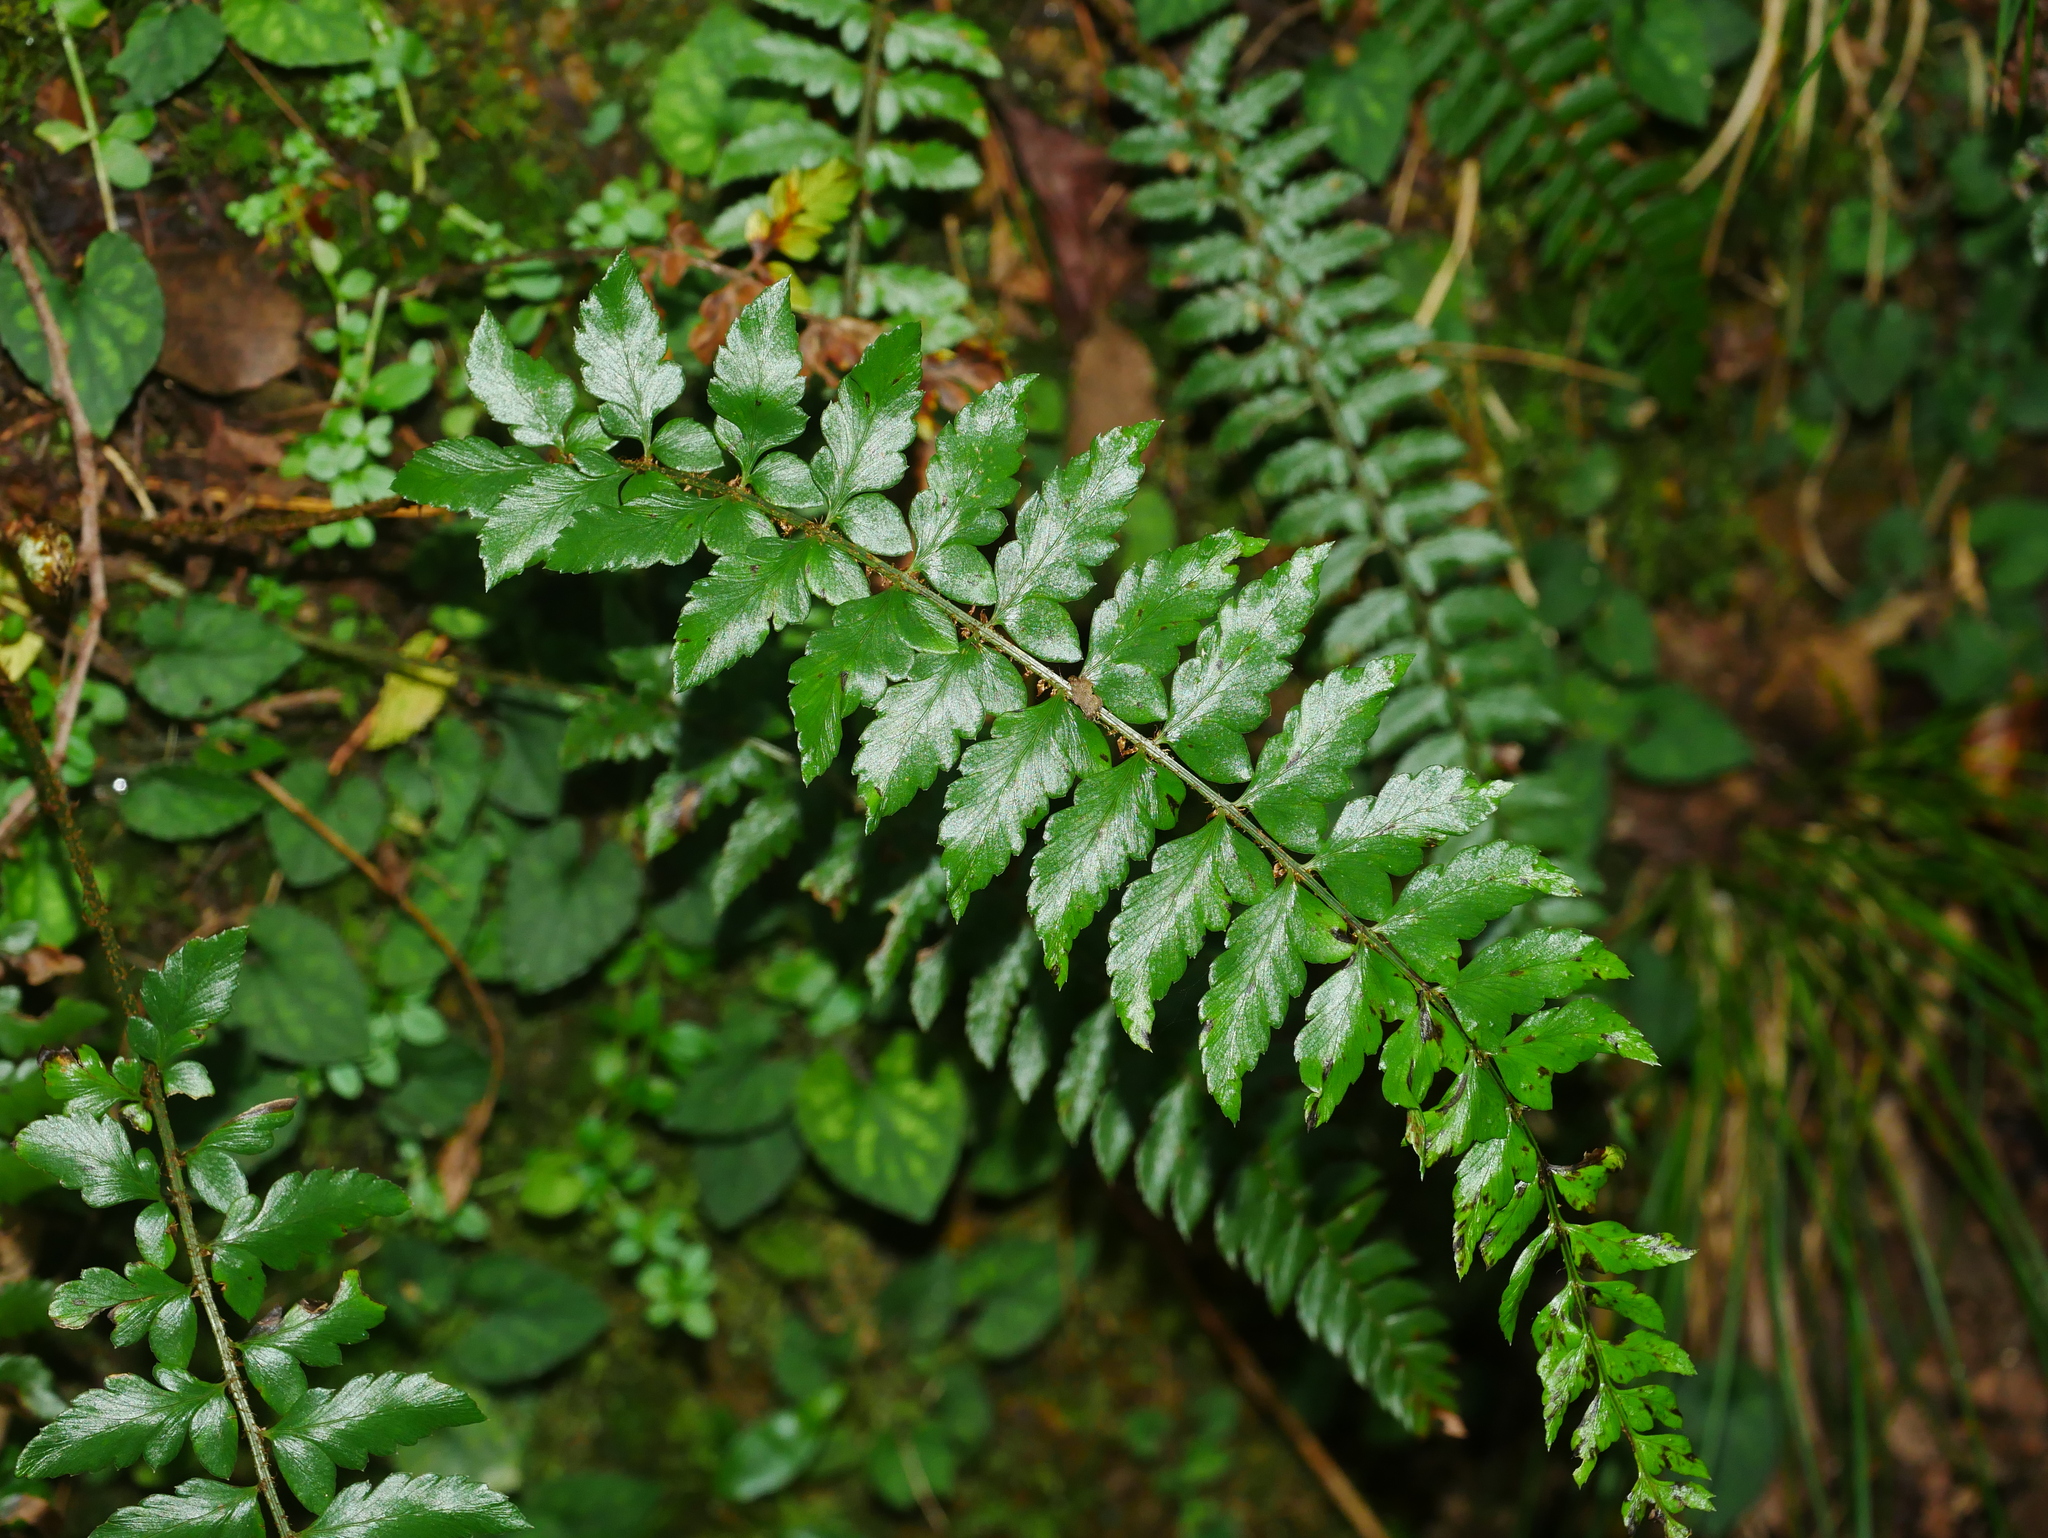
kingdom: Plantae
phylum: Tracheophyta
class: Polypodiopsida
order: Polypodiales
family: Dryopteridaceae
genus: Polystichum
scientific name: Polystichum manmeiense
